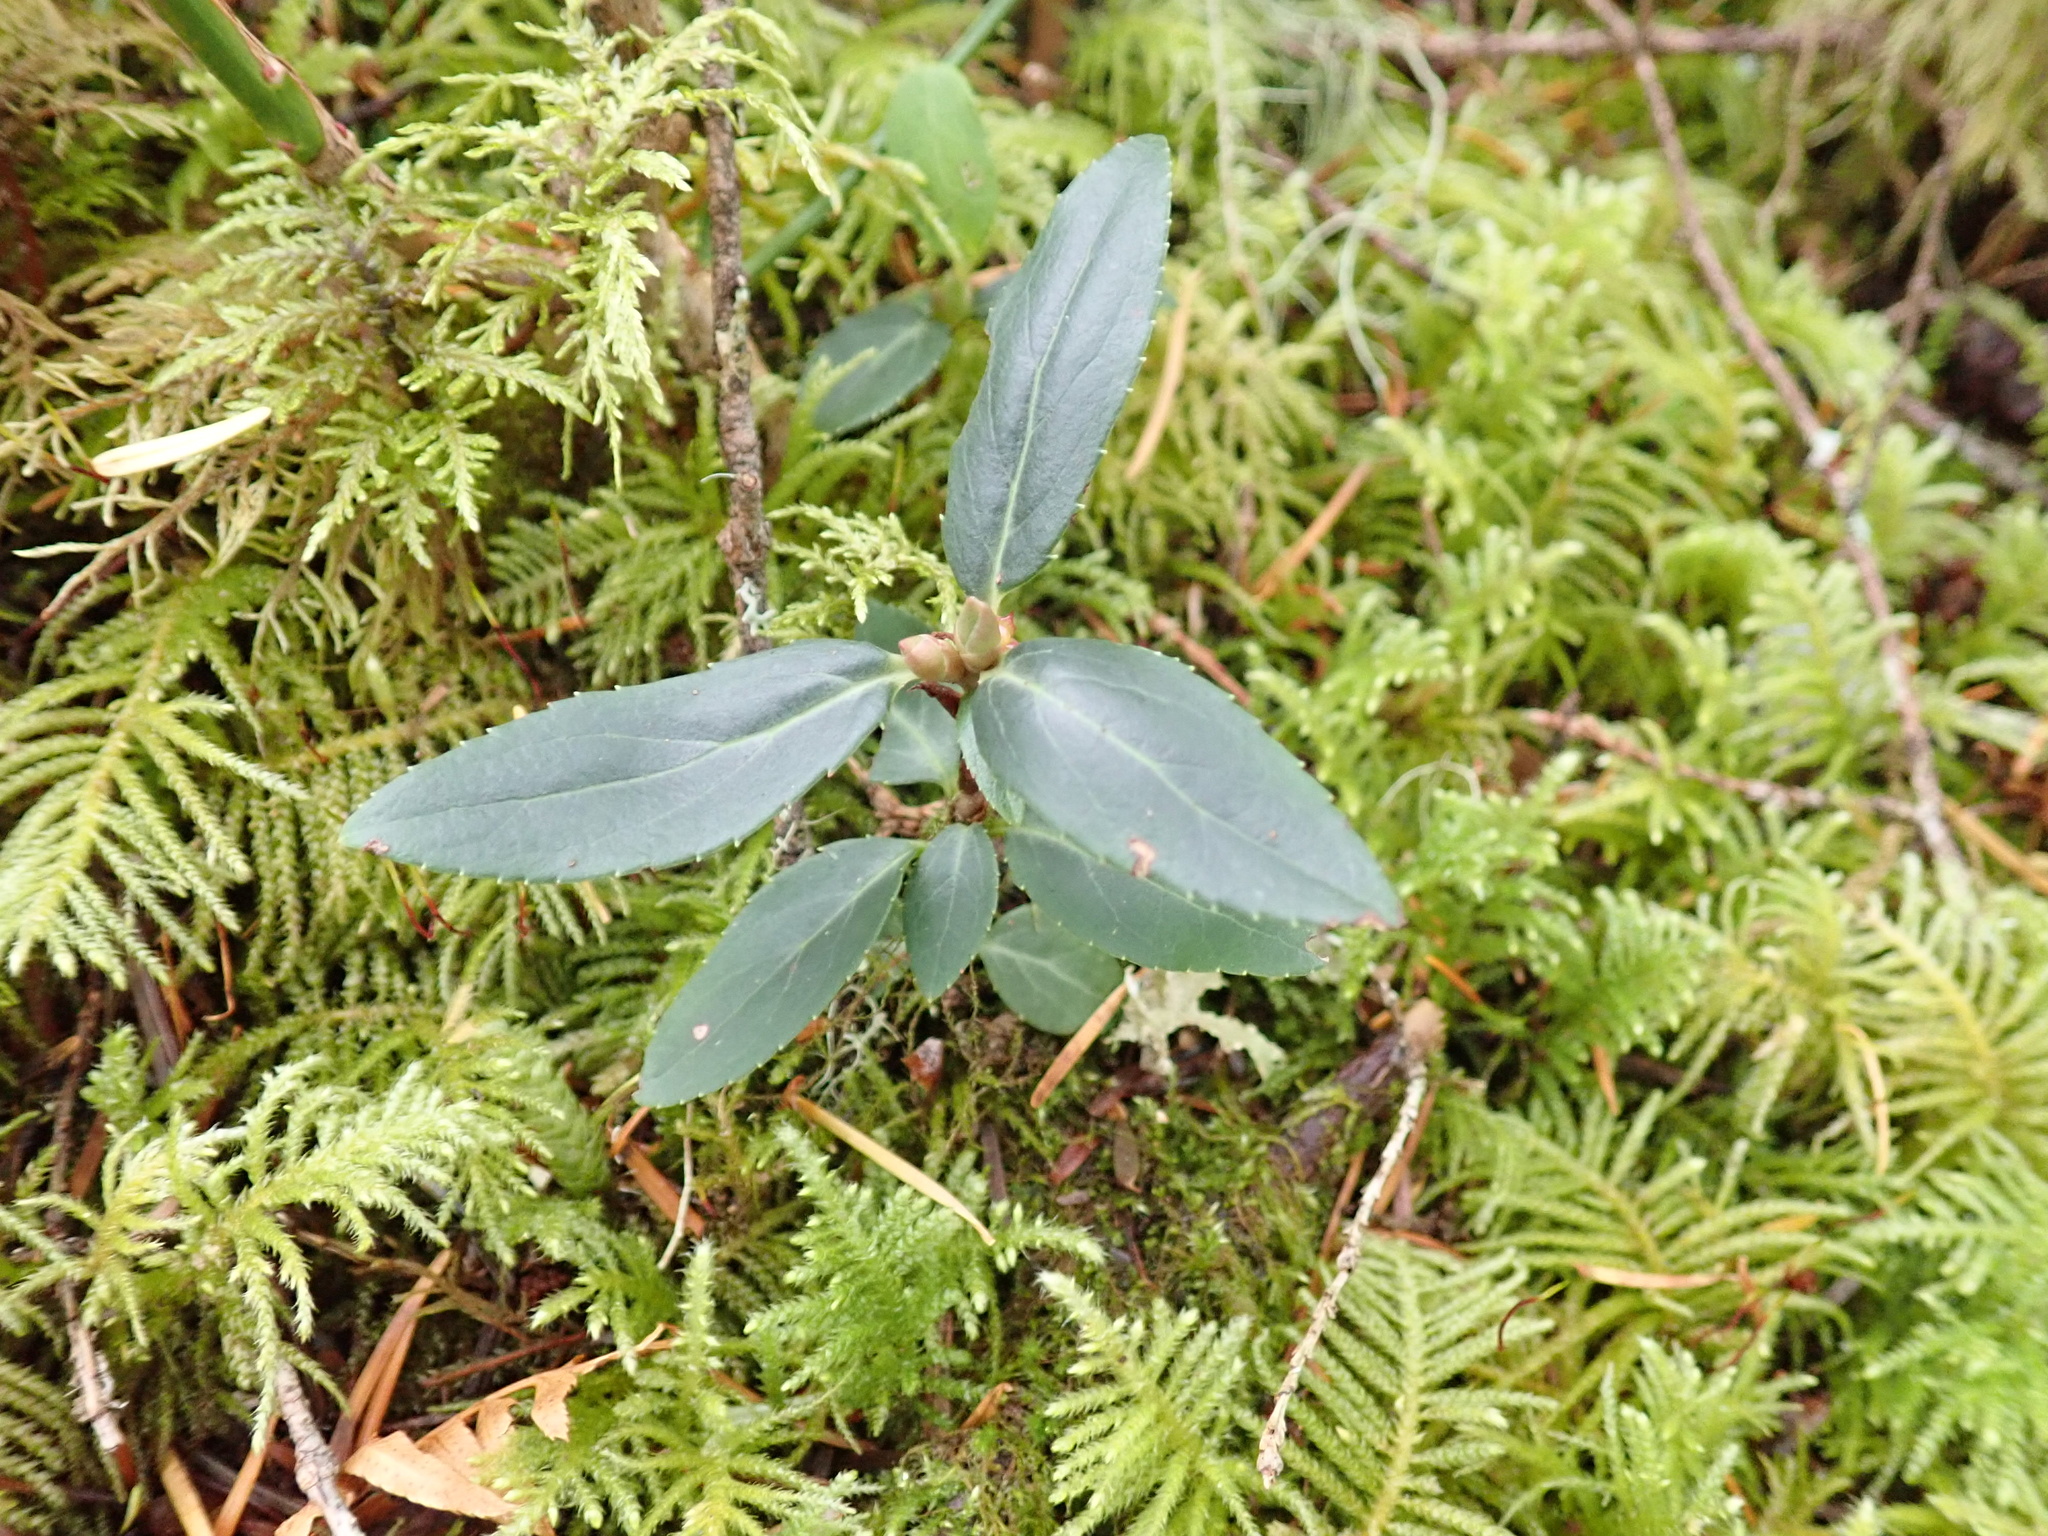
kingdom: Plantae
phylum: Tracheophyta
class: Magnoliopsida
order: Ericales
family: Ericaceae
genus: Chimaphila
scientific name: Chimaphila menziesii
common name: Menzies' pipsissewa
